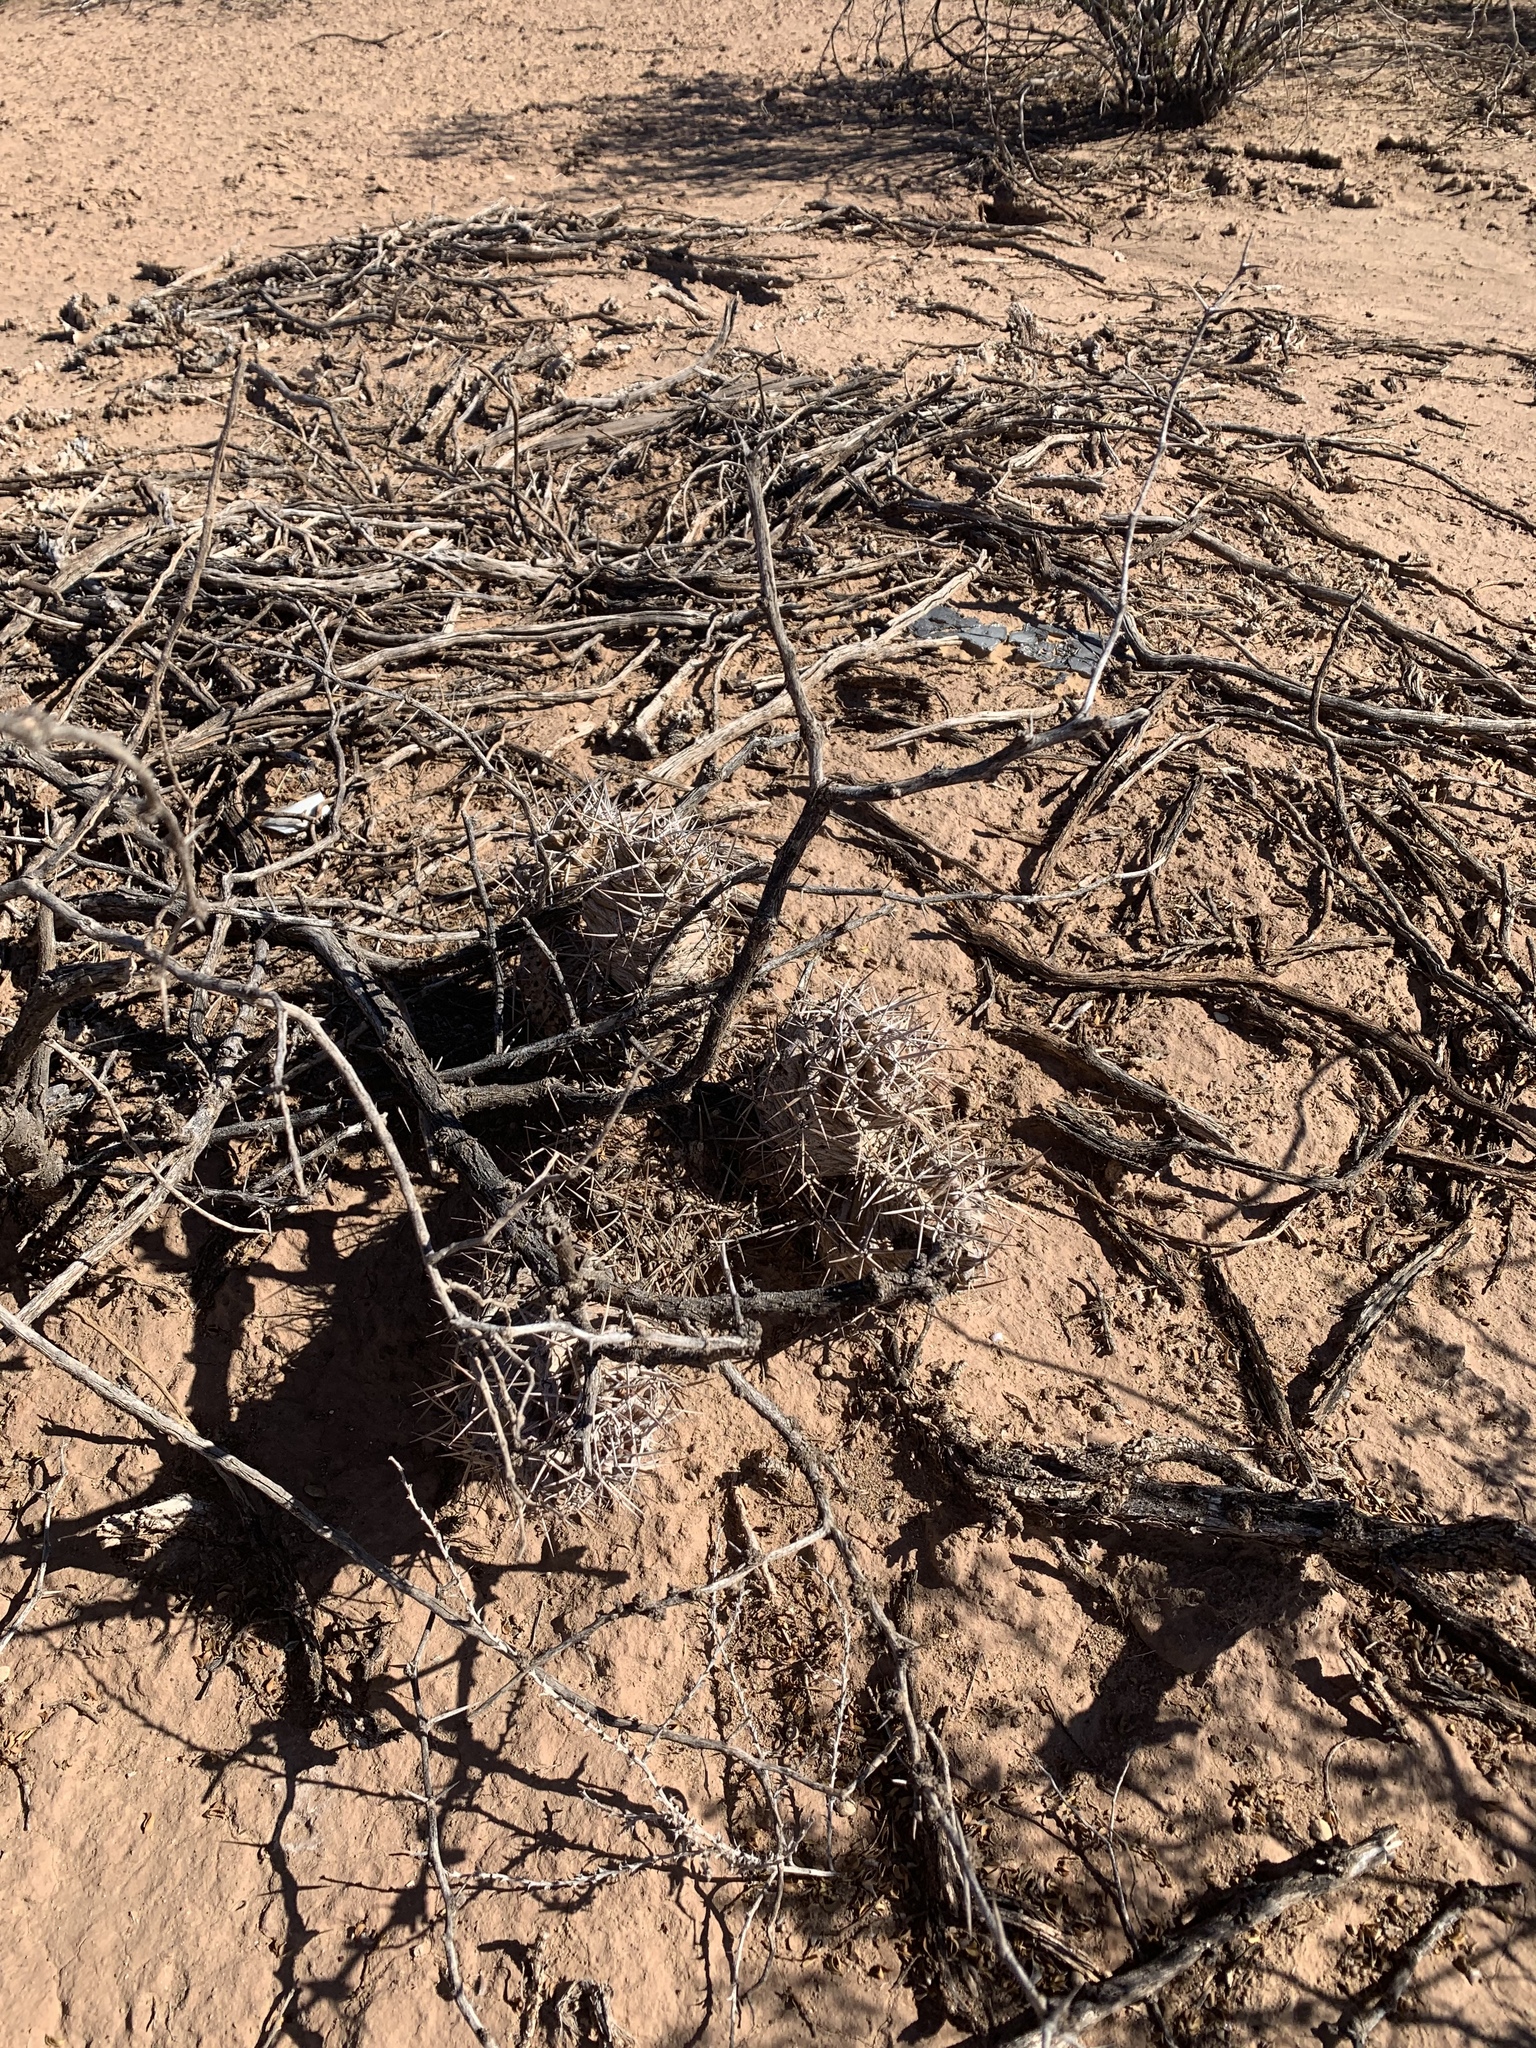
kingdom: Plantae
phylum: Tracheophyta
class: Magnoliopsida
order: Caryophyllales
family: Cactaceae
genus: Echinocereus
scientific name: Echinocereus triglochidiatus
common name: Claretcup hedgehog
